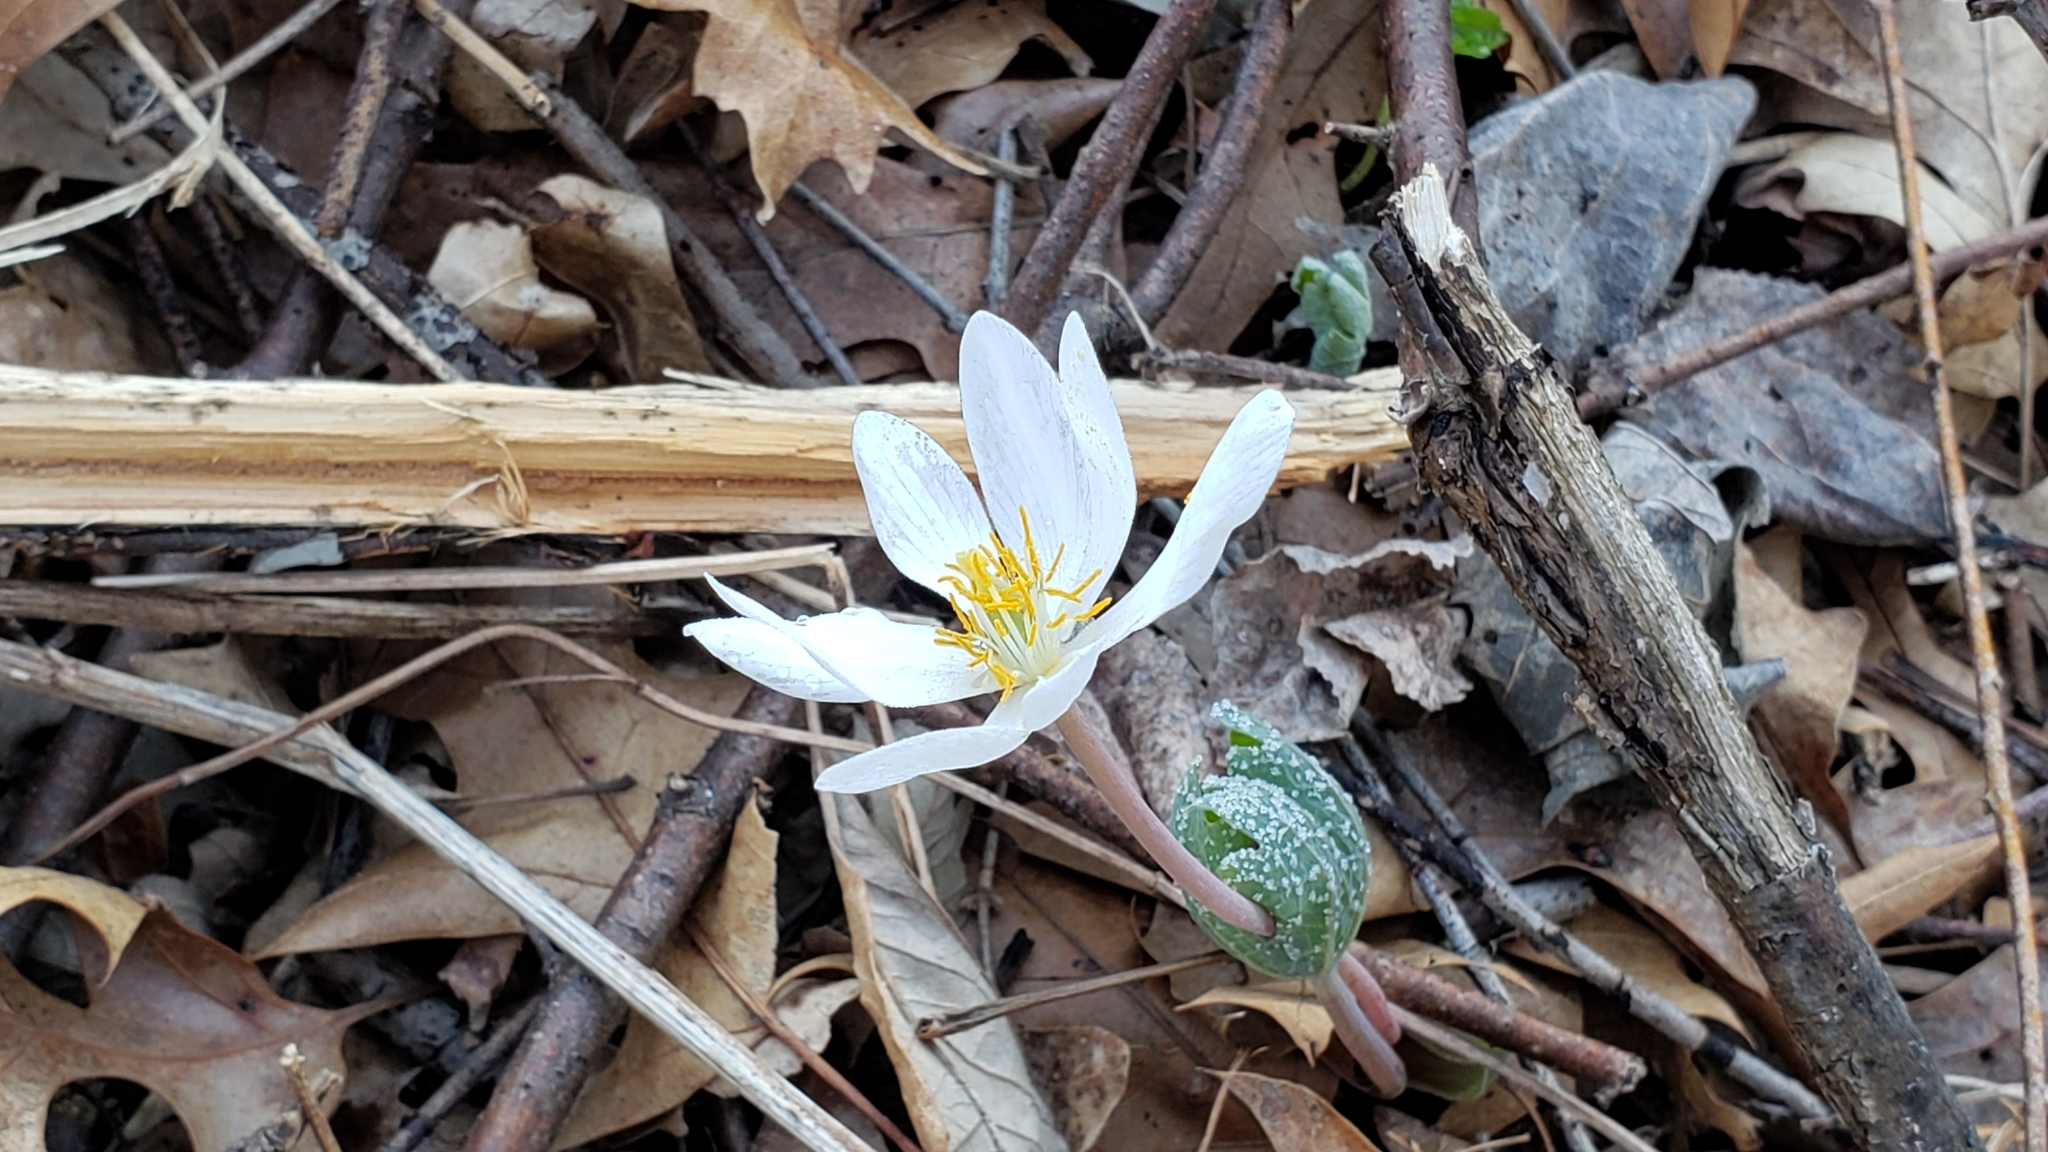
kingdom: Plantae
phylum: Tracheophyta
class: Magnoliopsida
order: Ranunculales
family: Papaveraceae
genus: Sanguinaria
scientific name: Sanguinaria canadensis
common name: Bloodroot
